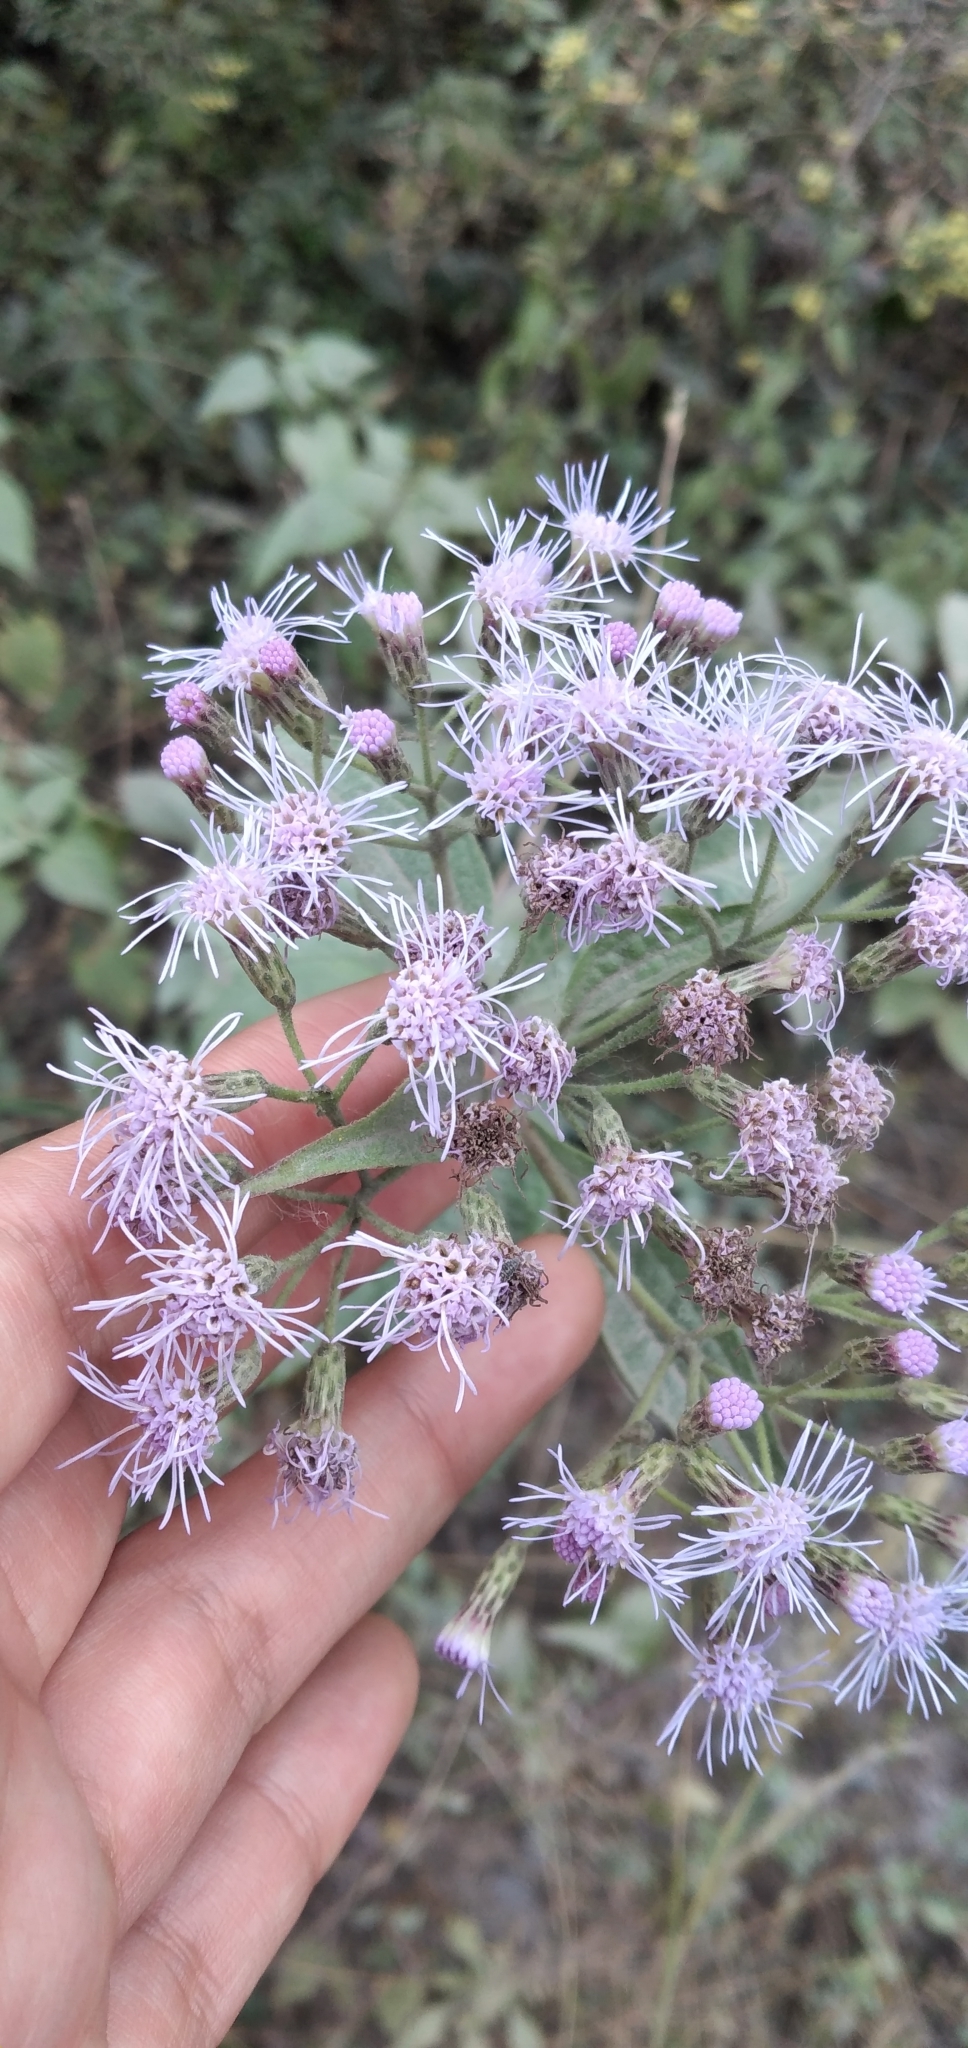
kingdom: Plantae
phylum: Tracheophyta
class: Magnoliopsida
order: Asterales
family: Asteraceae
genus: Chromolaena
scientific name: Chromolaena hookeriana
